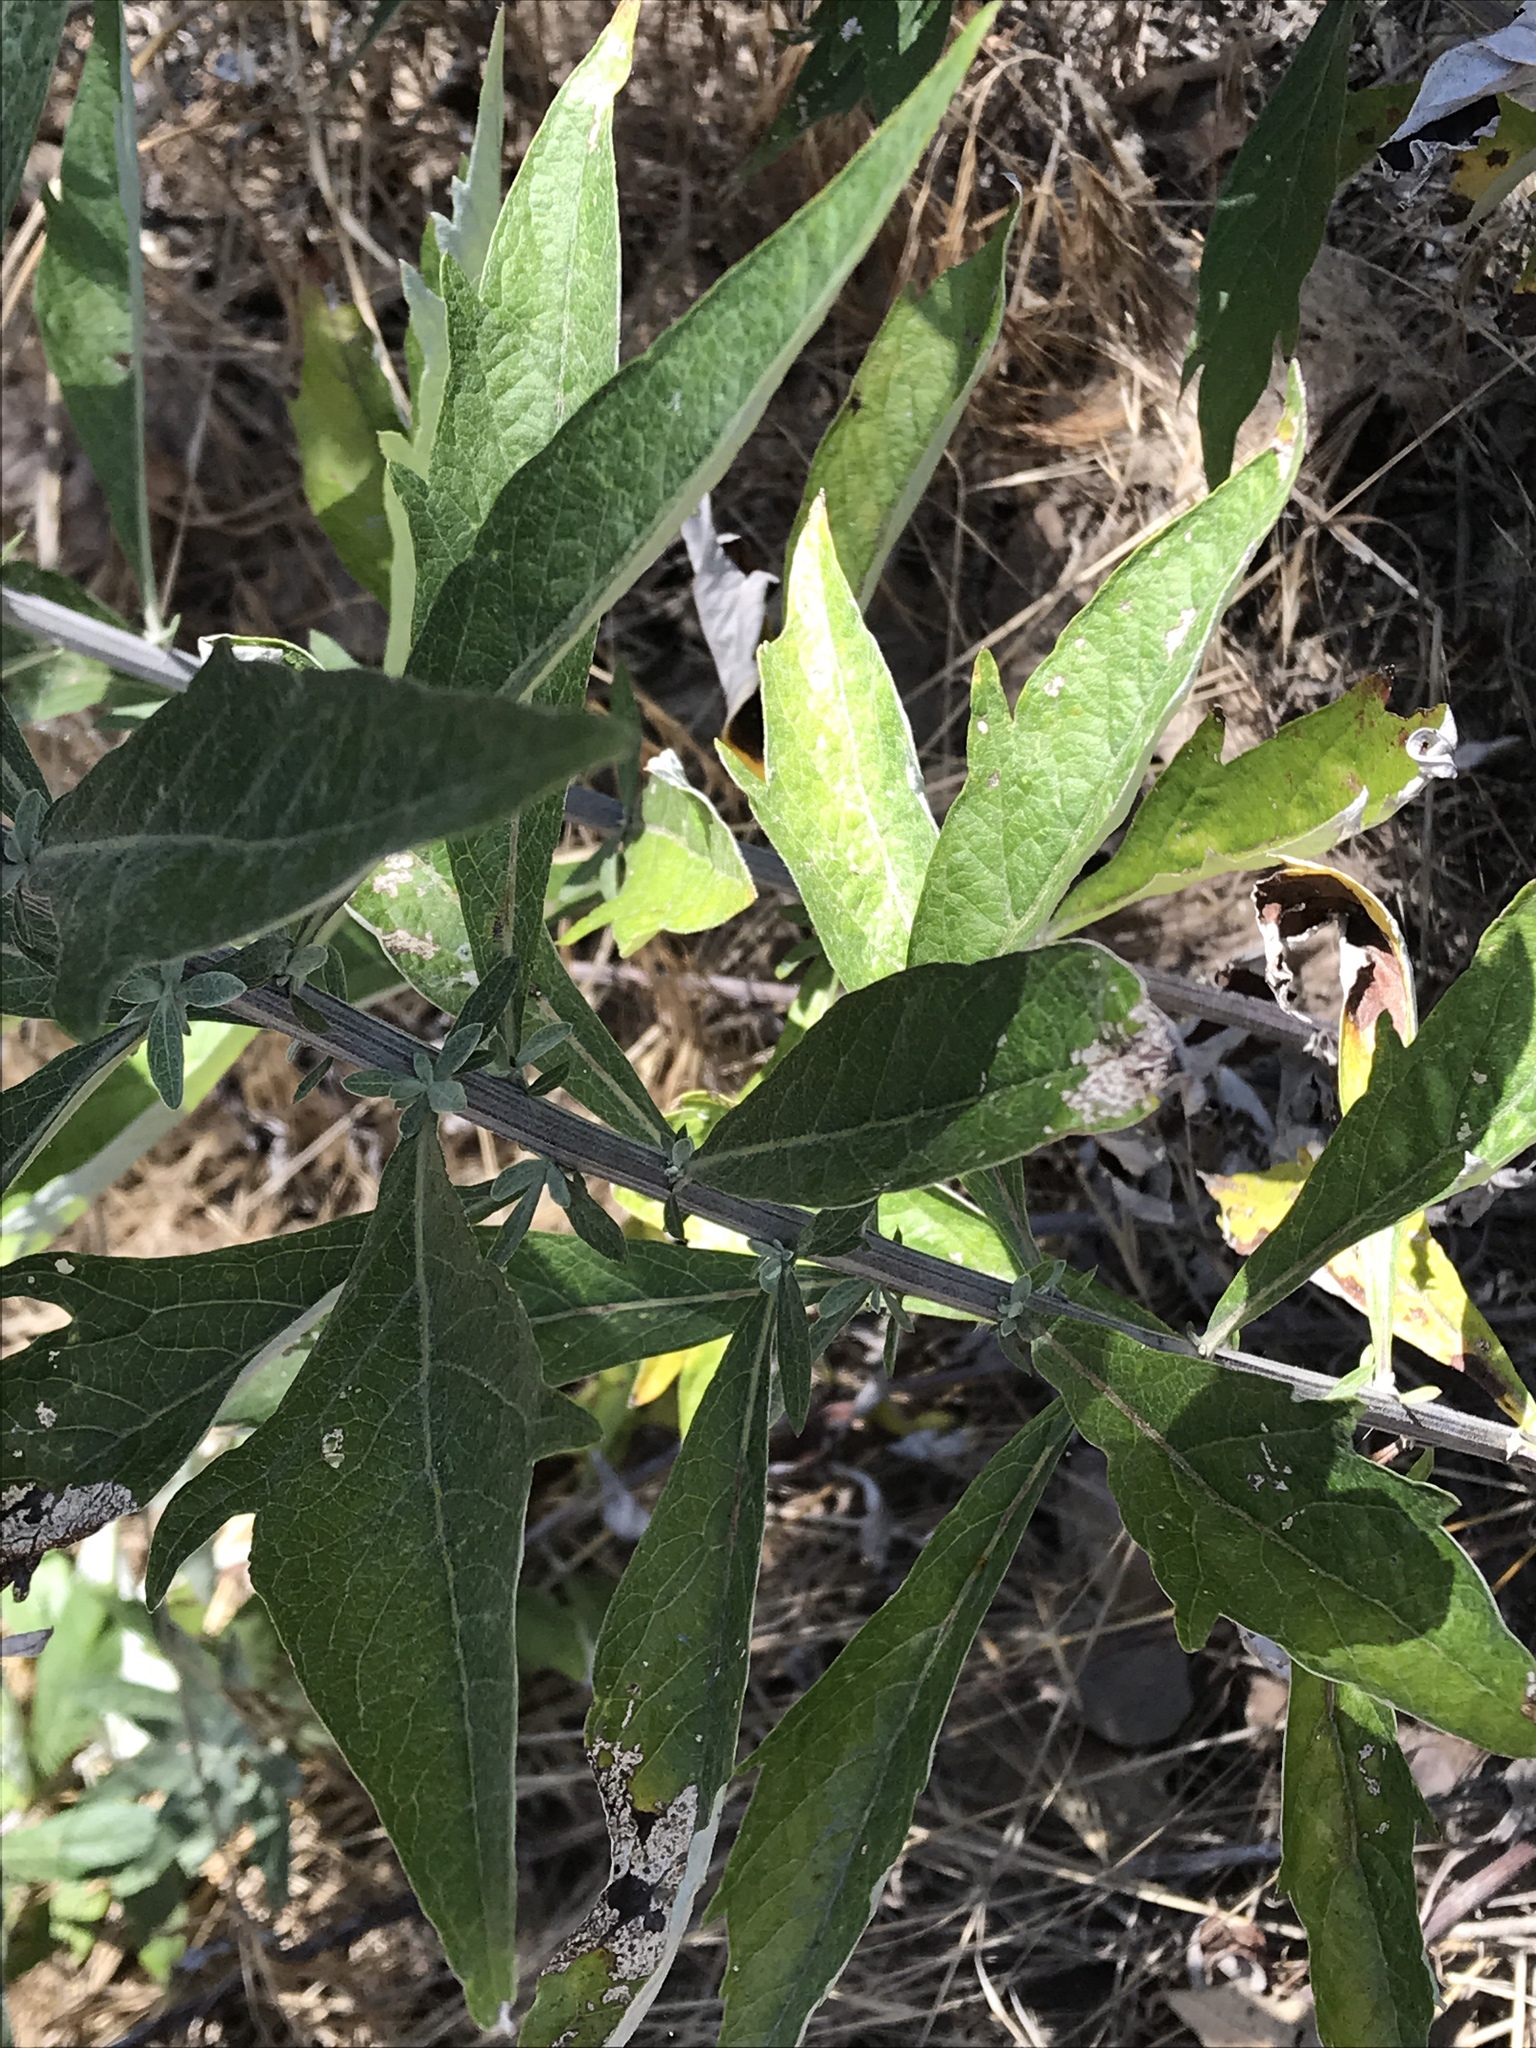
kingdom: Plantae
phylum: Tracheophyta
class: Magnoliopsida
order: Asterales
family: Asteraceae
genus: Artemisia
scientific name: Artemisia douglasiana
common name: Northwest mugwort
